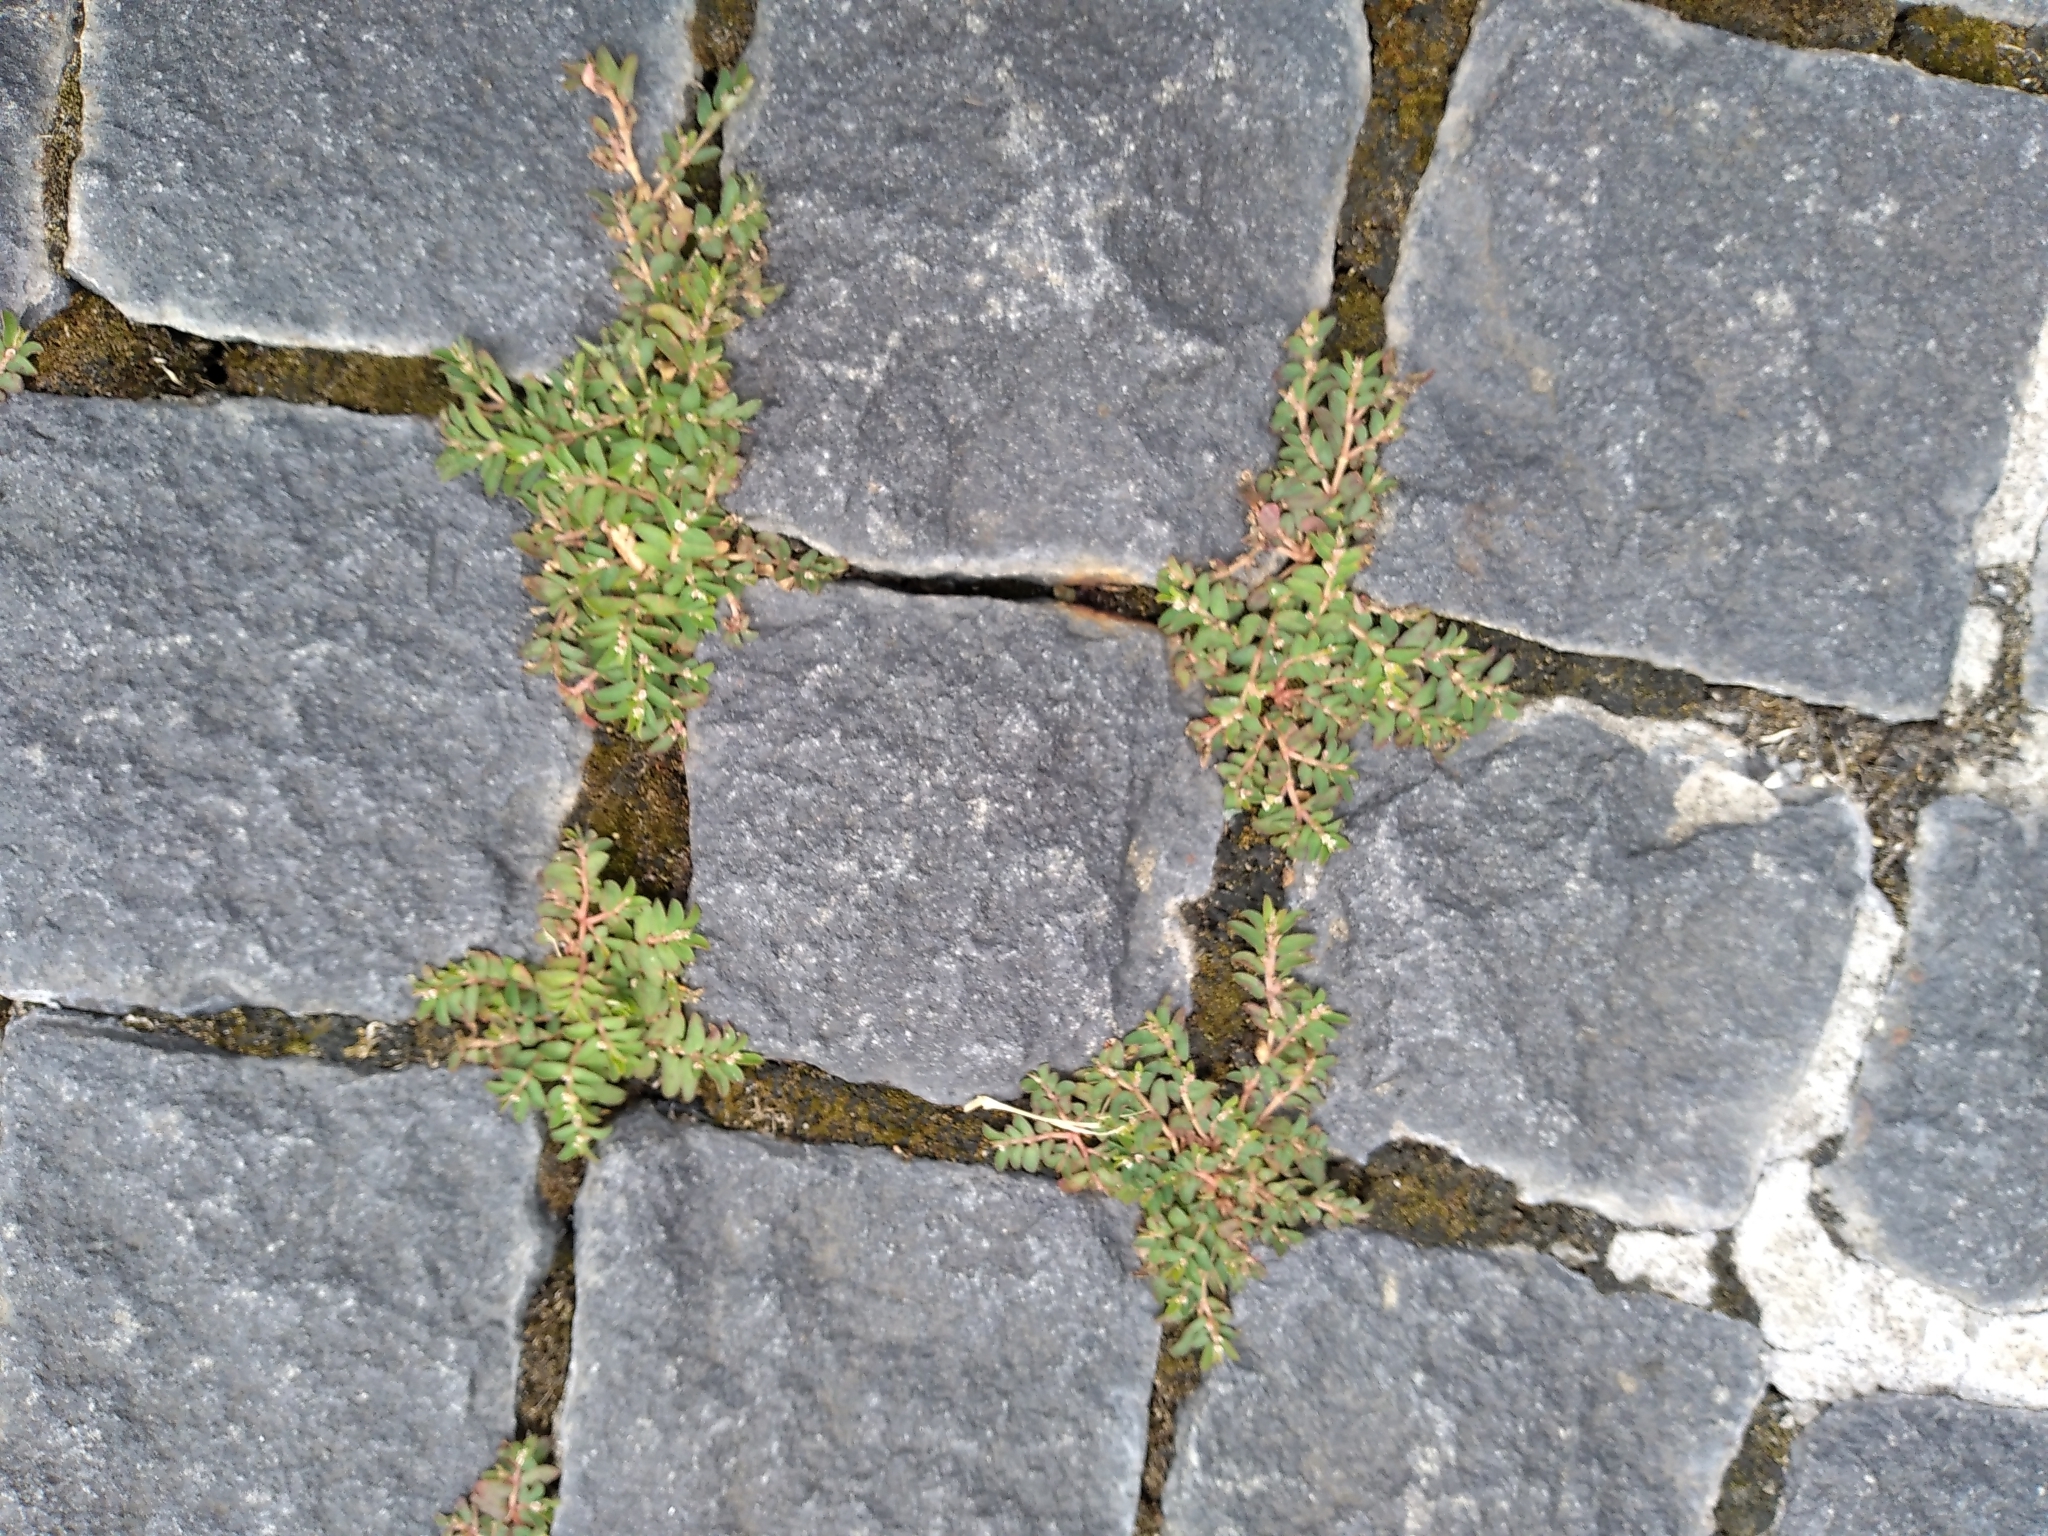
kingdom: Plantae
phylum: Tracheophyta
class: Magnoliopsida
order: Malpighiales
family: Euphorbiaceae
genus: Euphorbia
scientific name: Euphorbia maculata
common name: Spotted spurge
